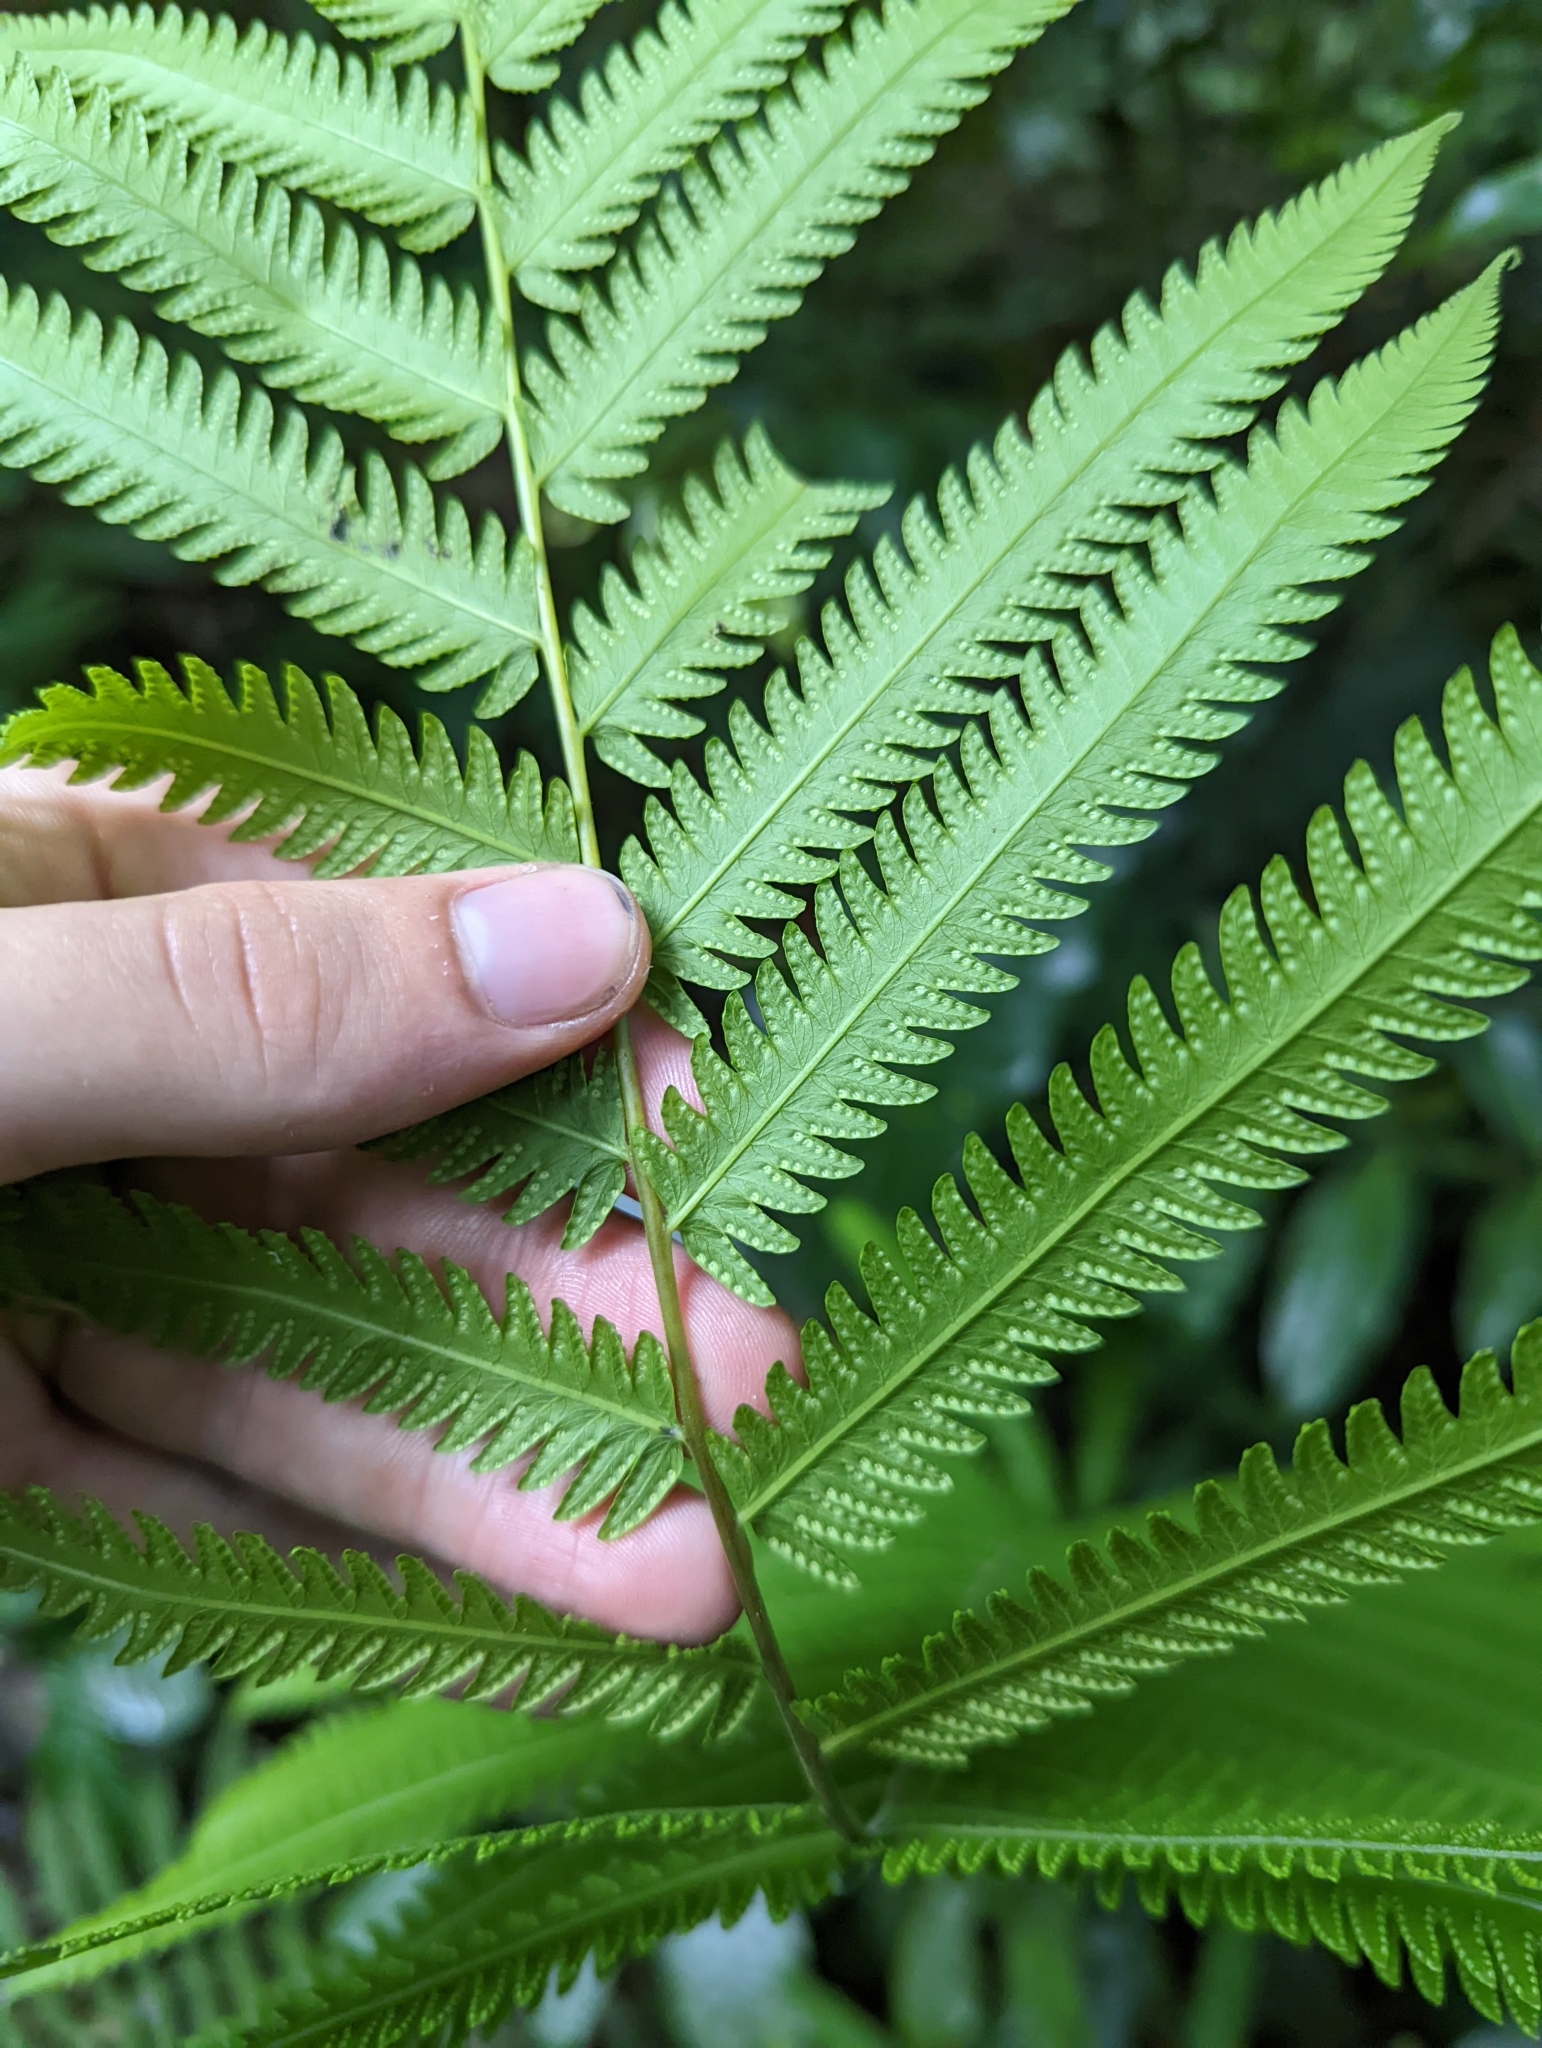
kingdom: Plantae
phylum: Tracheophyta
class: Polypodiopsida
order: Polypodiales
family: Thelypteridaceae
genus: Amblovenatum
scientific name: Amblovenatum opulentum
